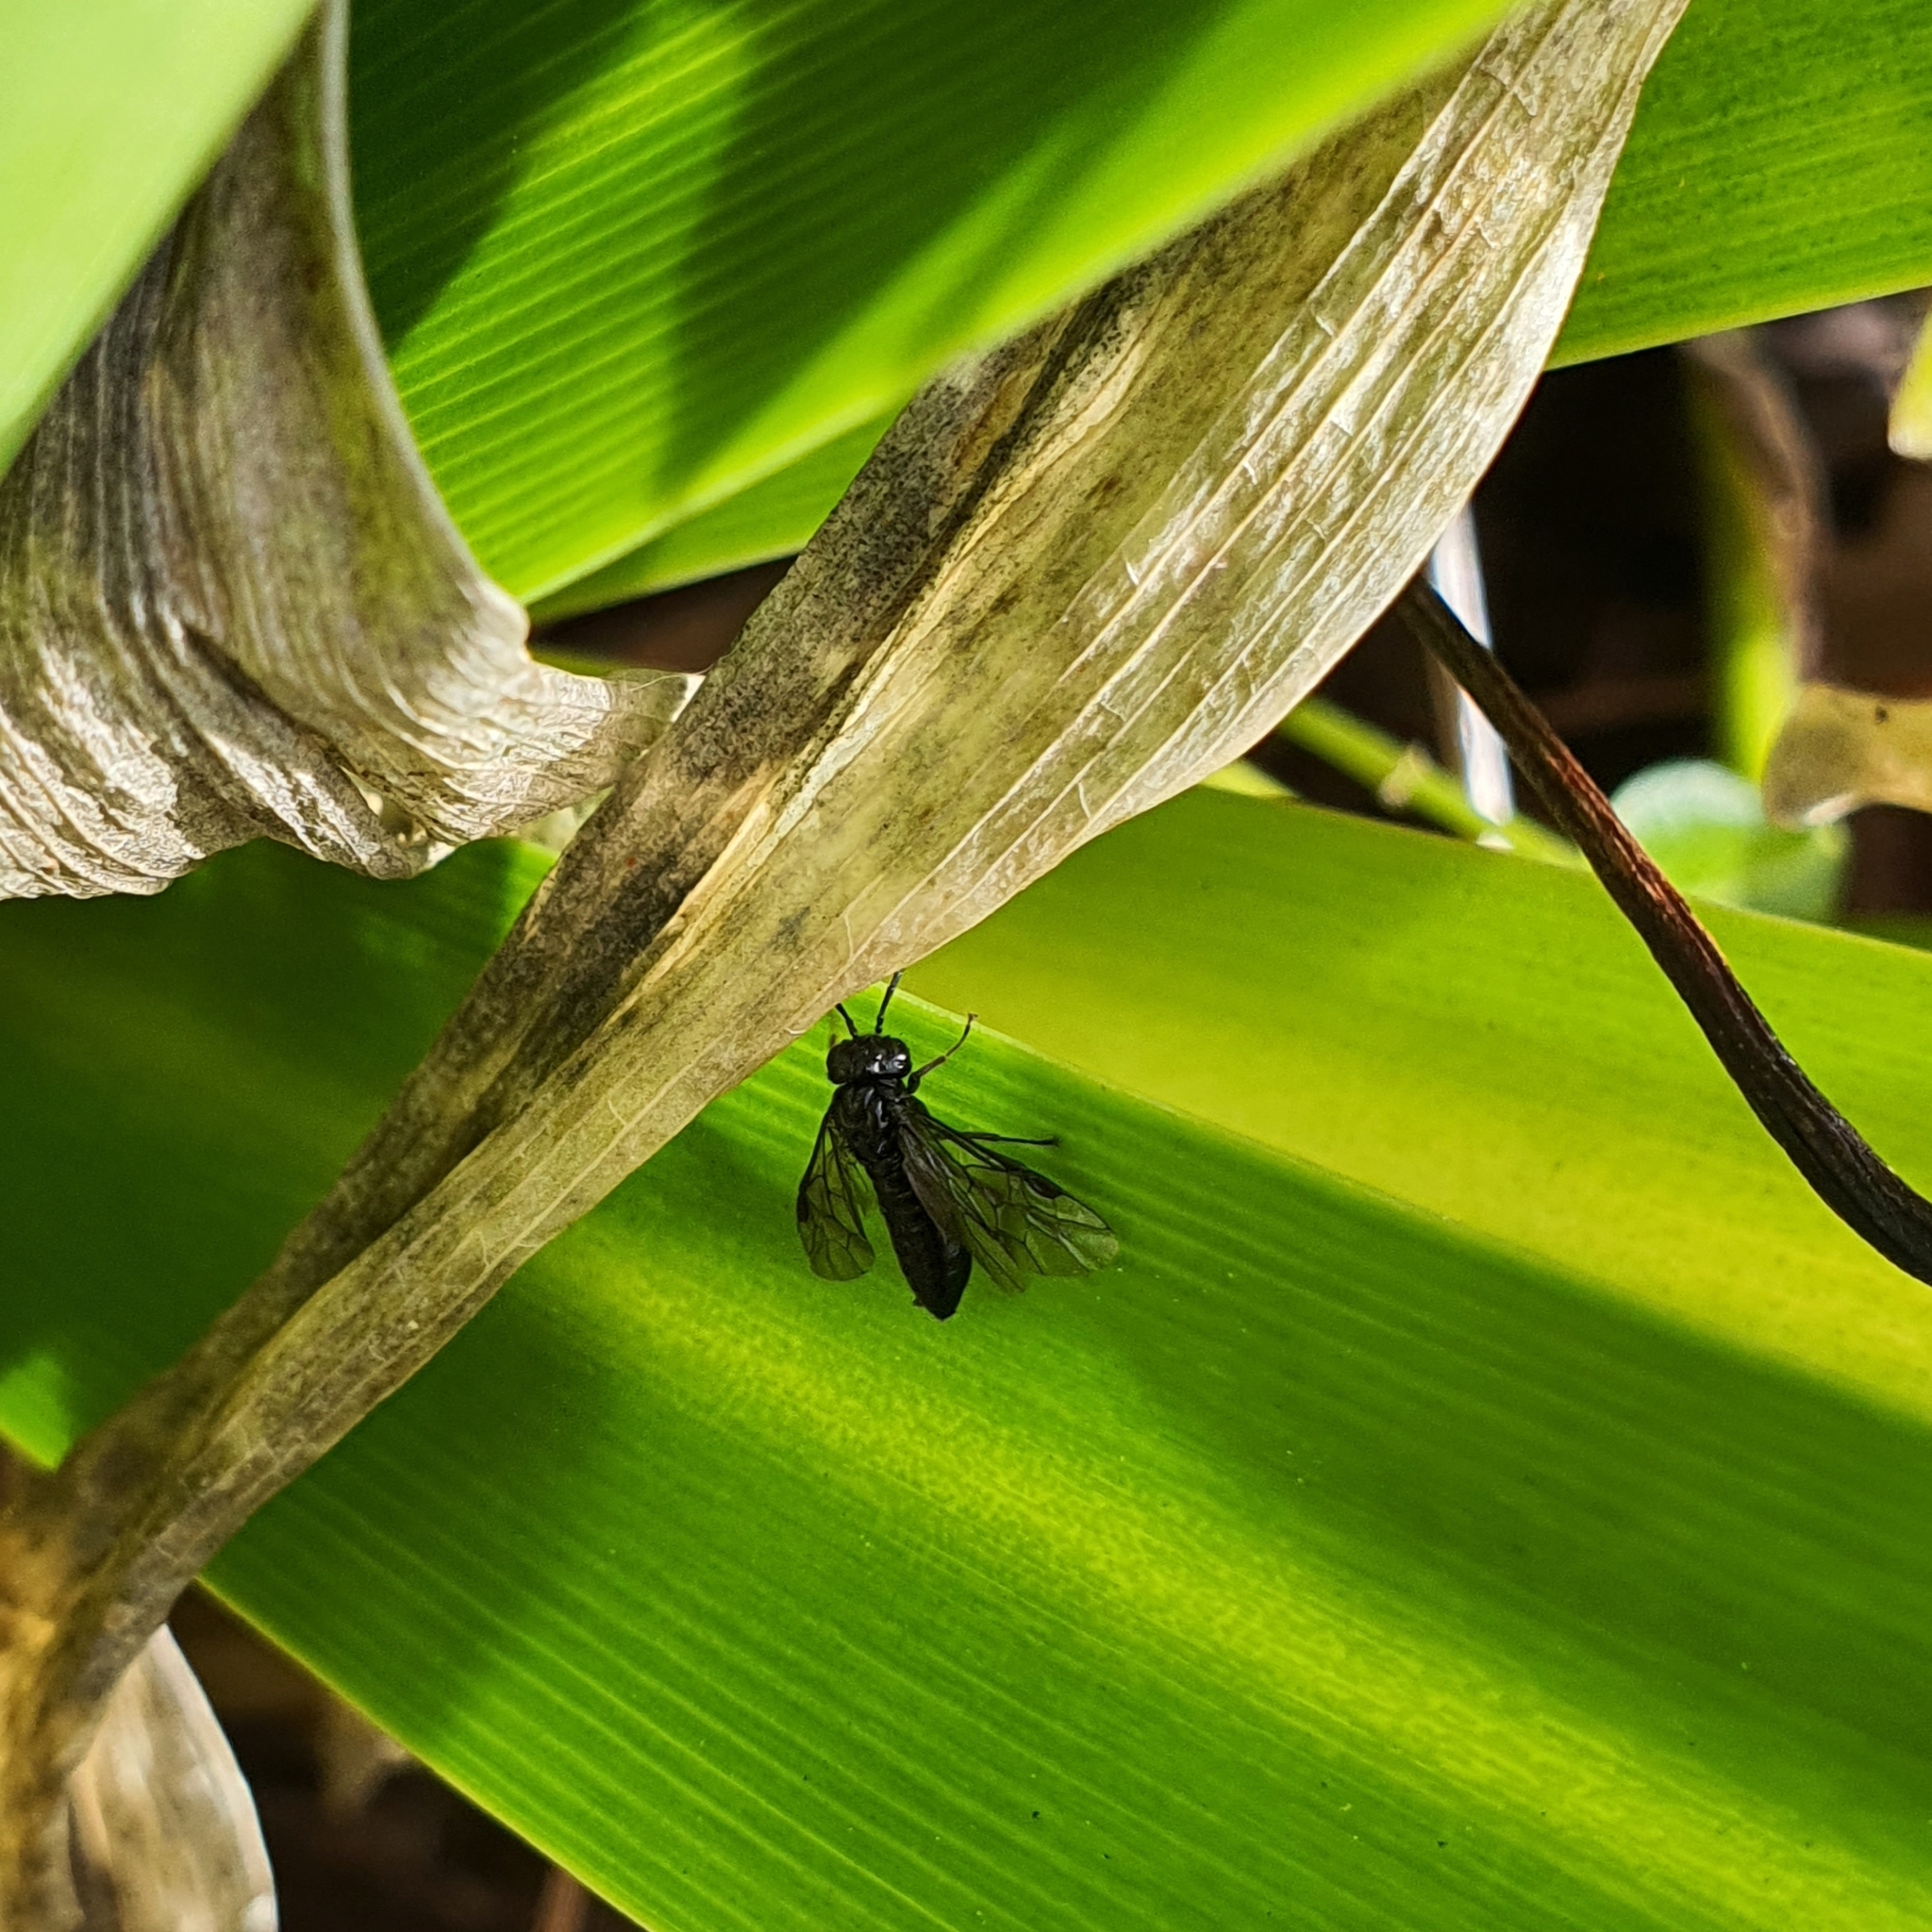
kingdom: Animalia
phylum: Arthropoda
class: Insecta
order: Hymenoptera
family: Tenthredinidae
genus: Caliroa
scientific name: Caliroa cerasi
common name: Pear sawfly
